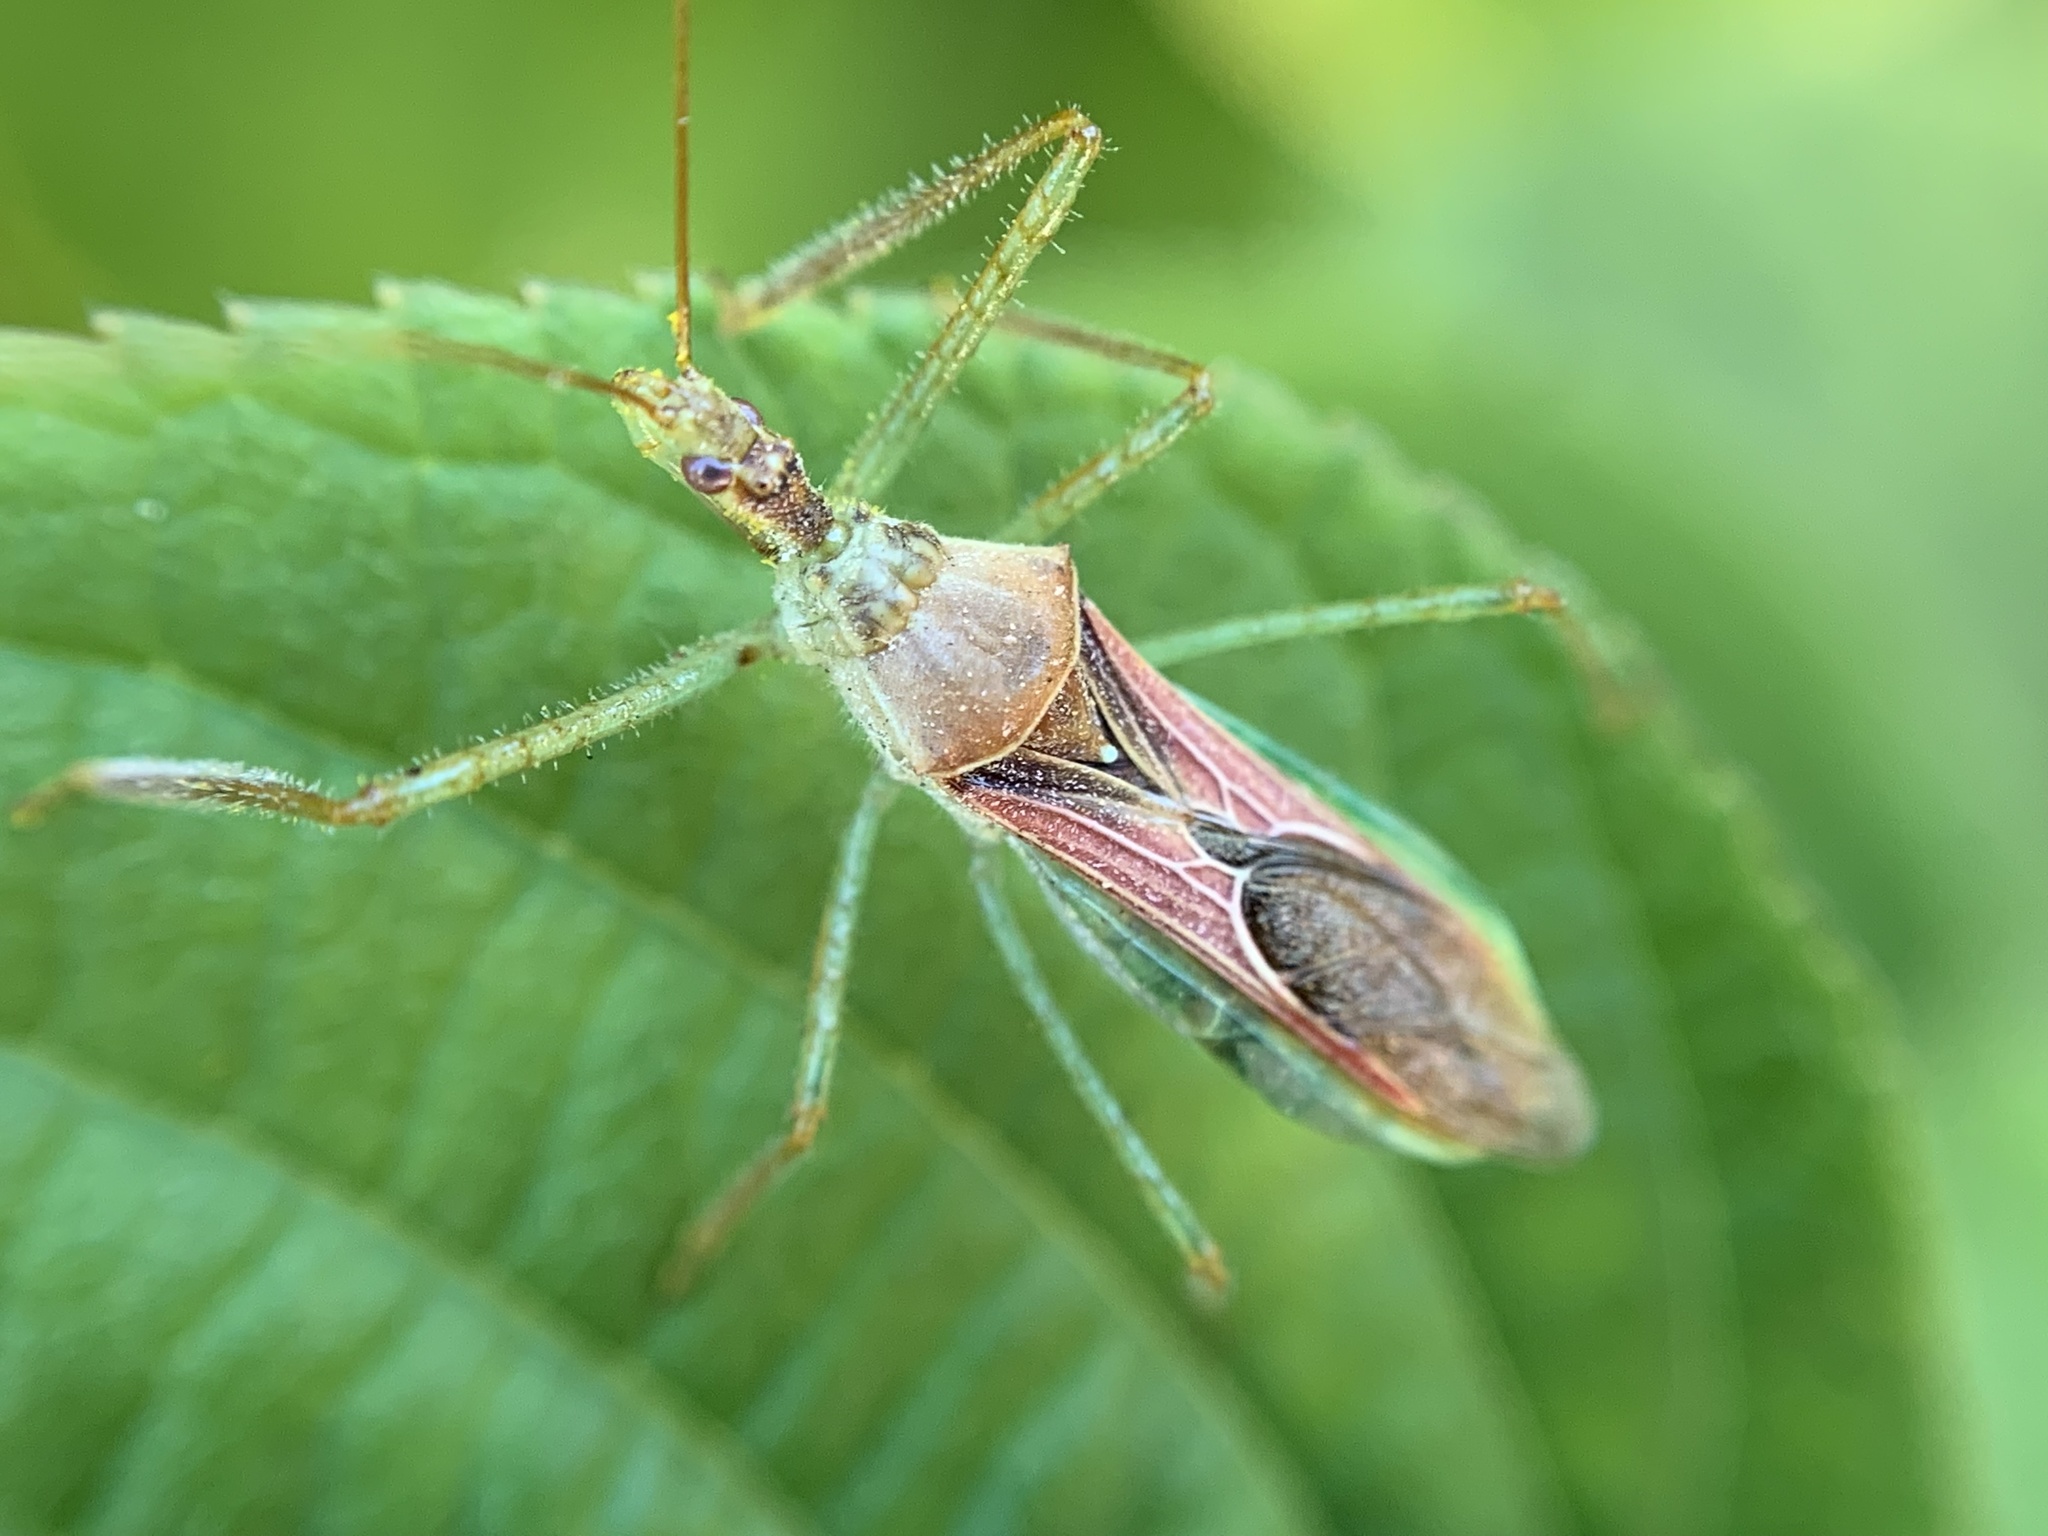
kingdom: Animalia
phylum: Arthropoda
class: Insecta
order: Hemiptera
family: Reduviidae
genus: Zelus
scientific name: Zelus renardii
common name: Assassin bug
